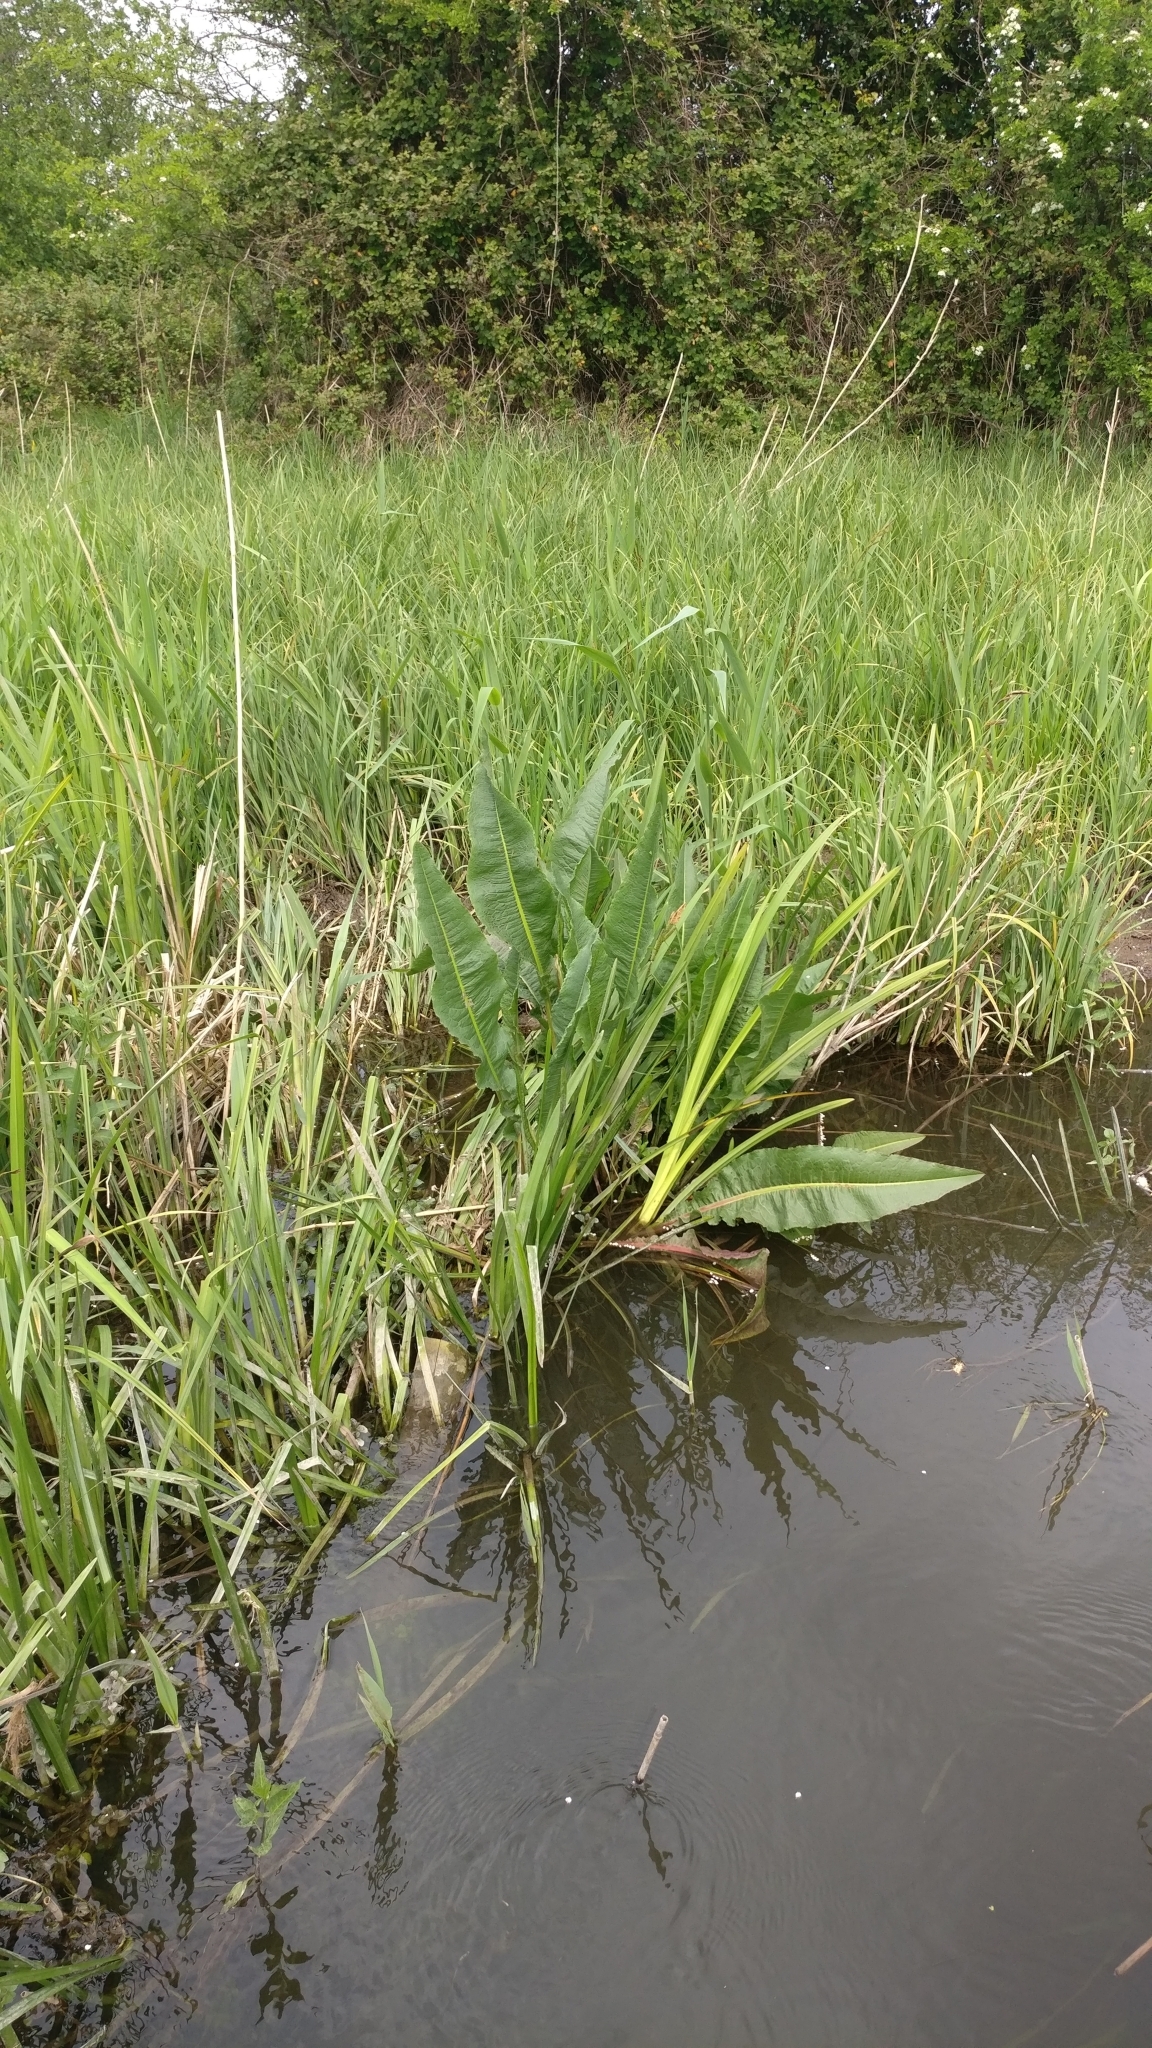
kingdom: Plantae
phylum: Tracheophyta
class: Magnoliopsida
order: Caryophyllales
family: Polygonaceae
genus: Rumex
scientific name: Rumex hydrolapathum
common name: Water dock
